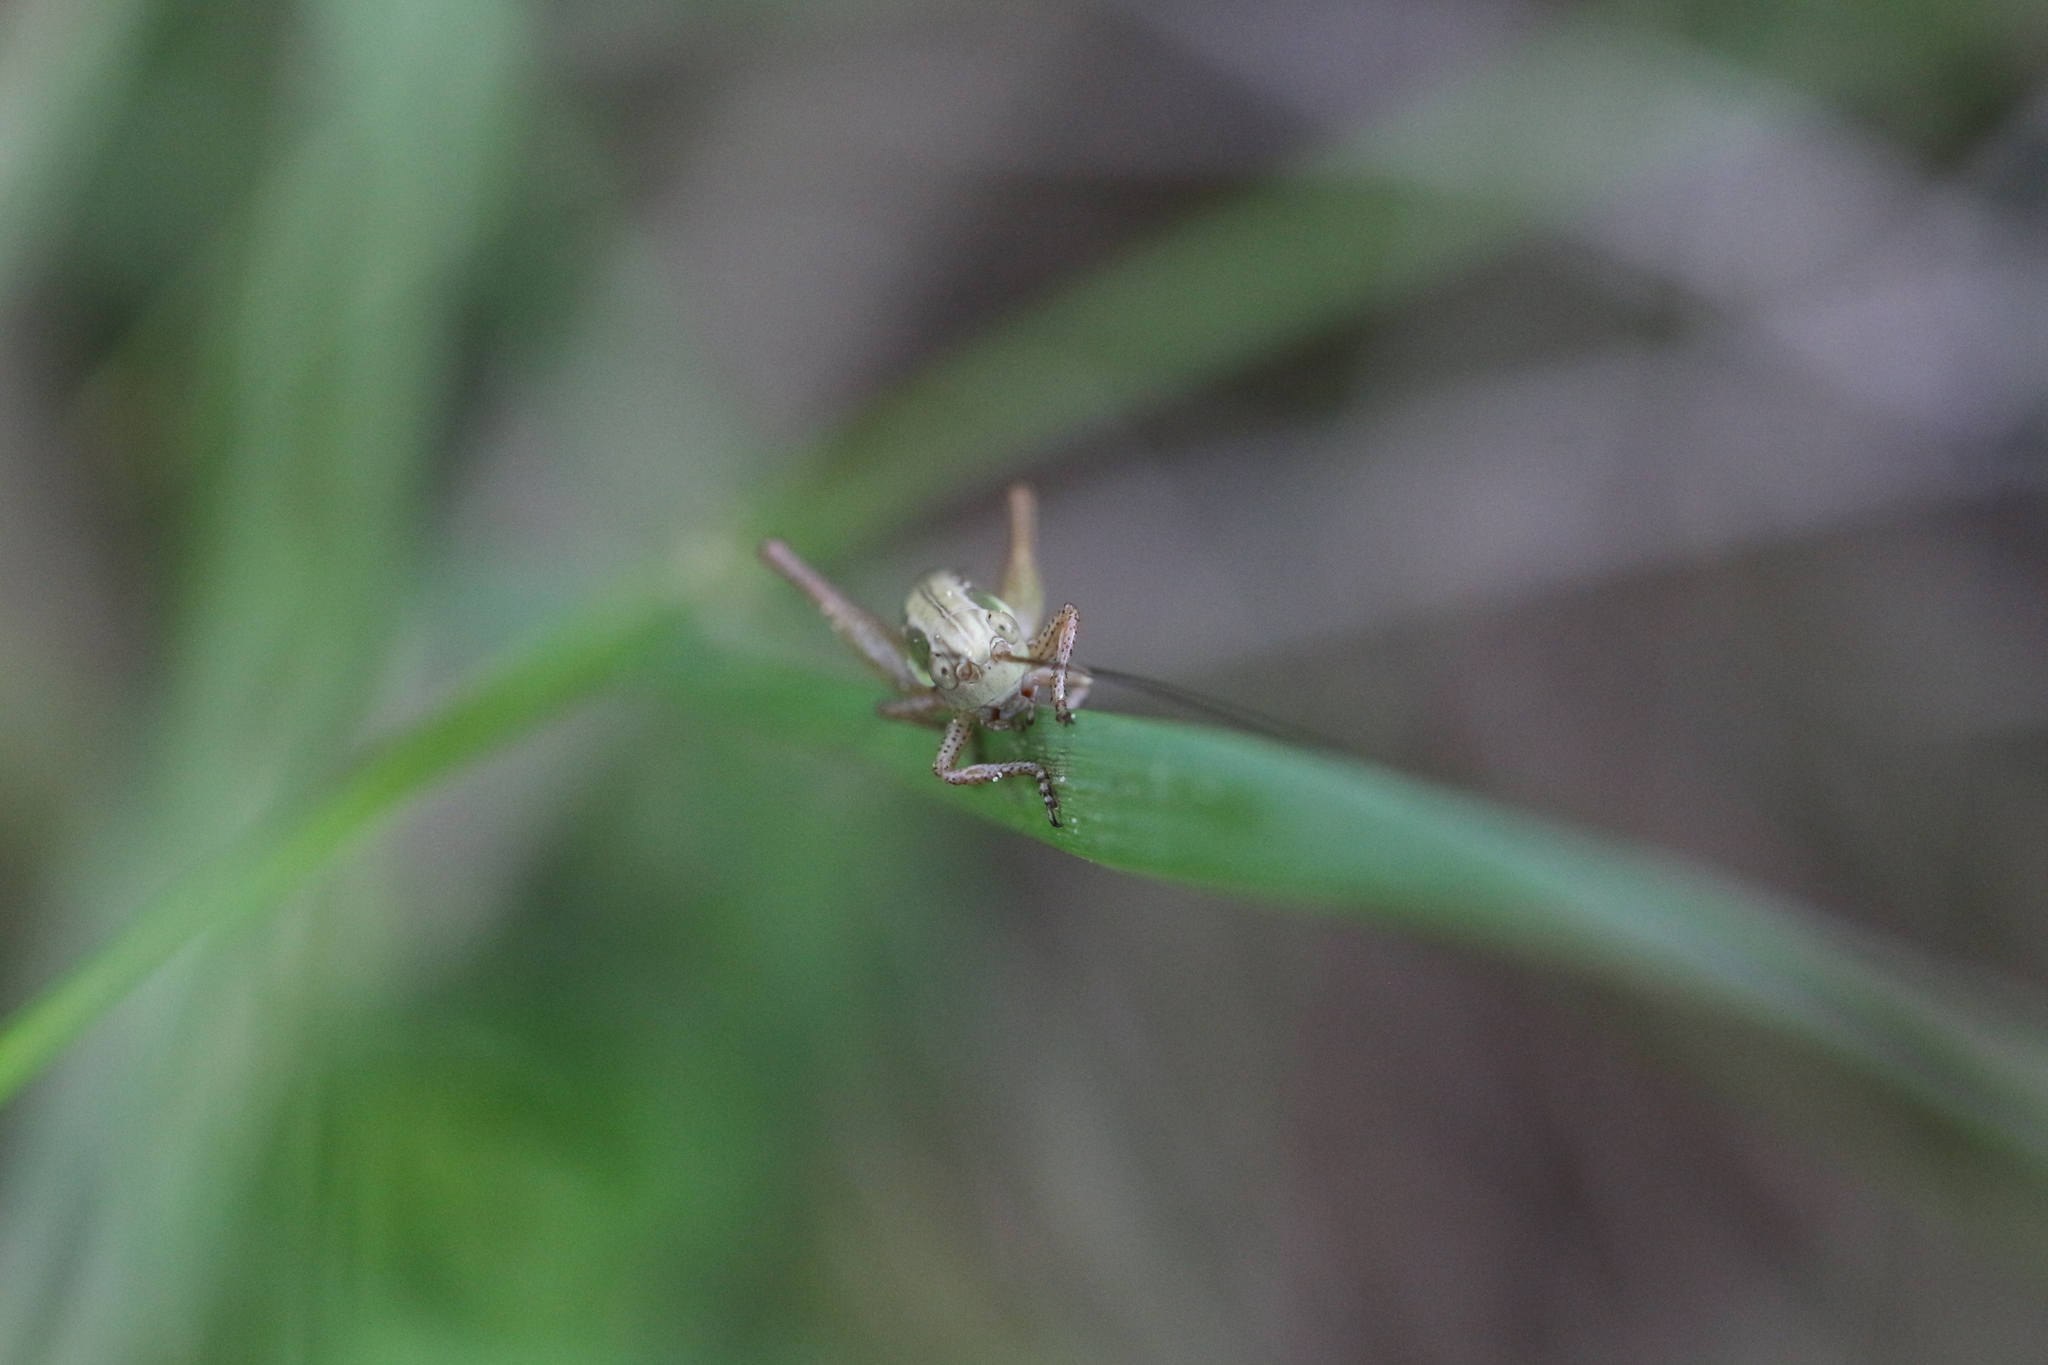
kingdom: Animalia
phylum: Arthropoda
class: Insecta
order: Orthoptera
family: Tettigoniidae
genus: Roeseliana
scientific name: Roeseliana roeselii
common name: Roesel's bush cricket
